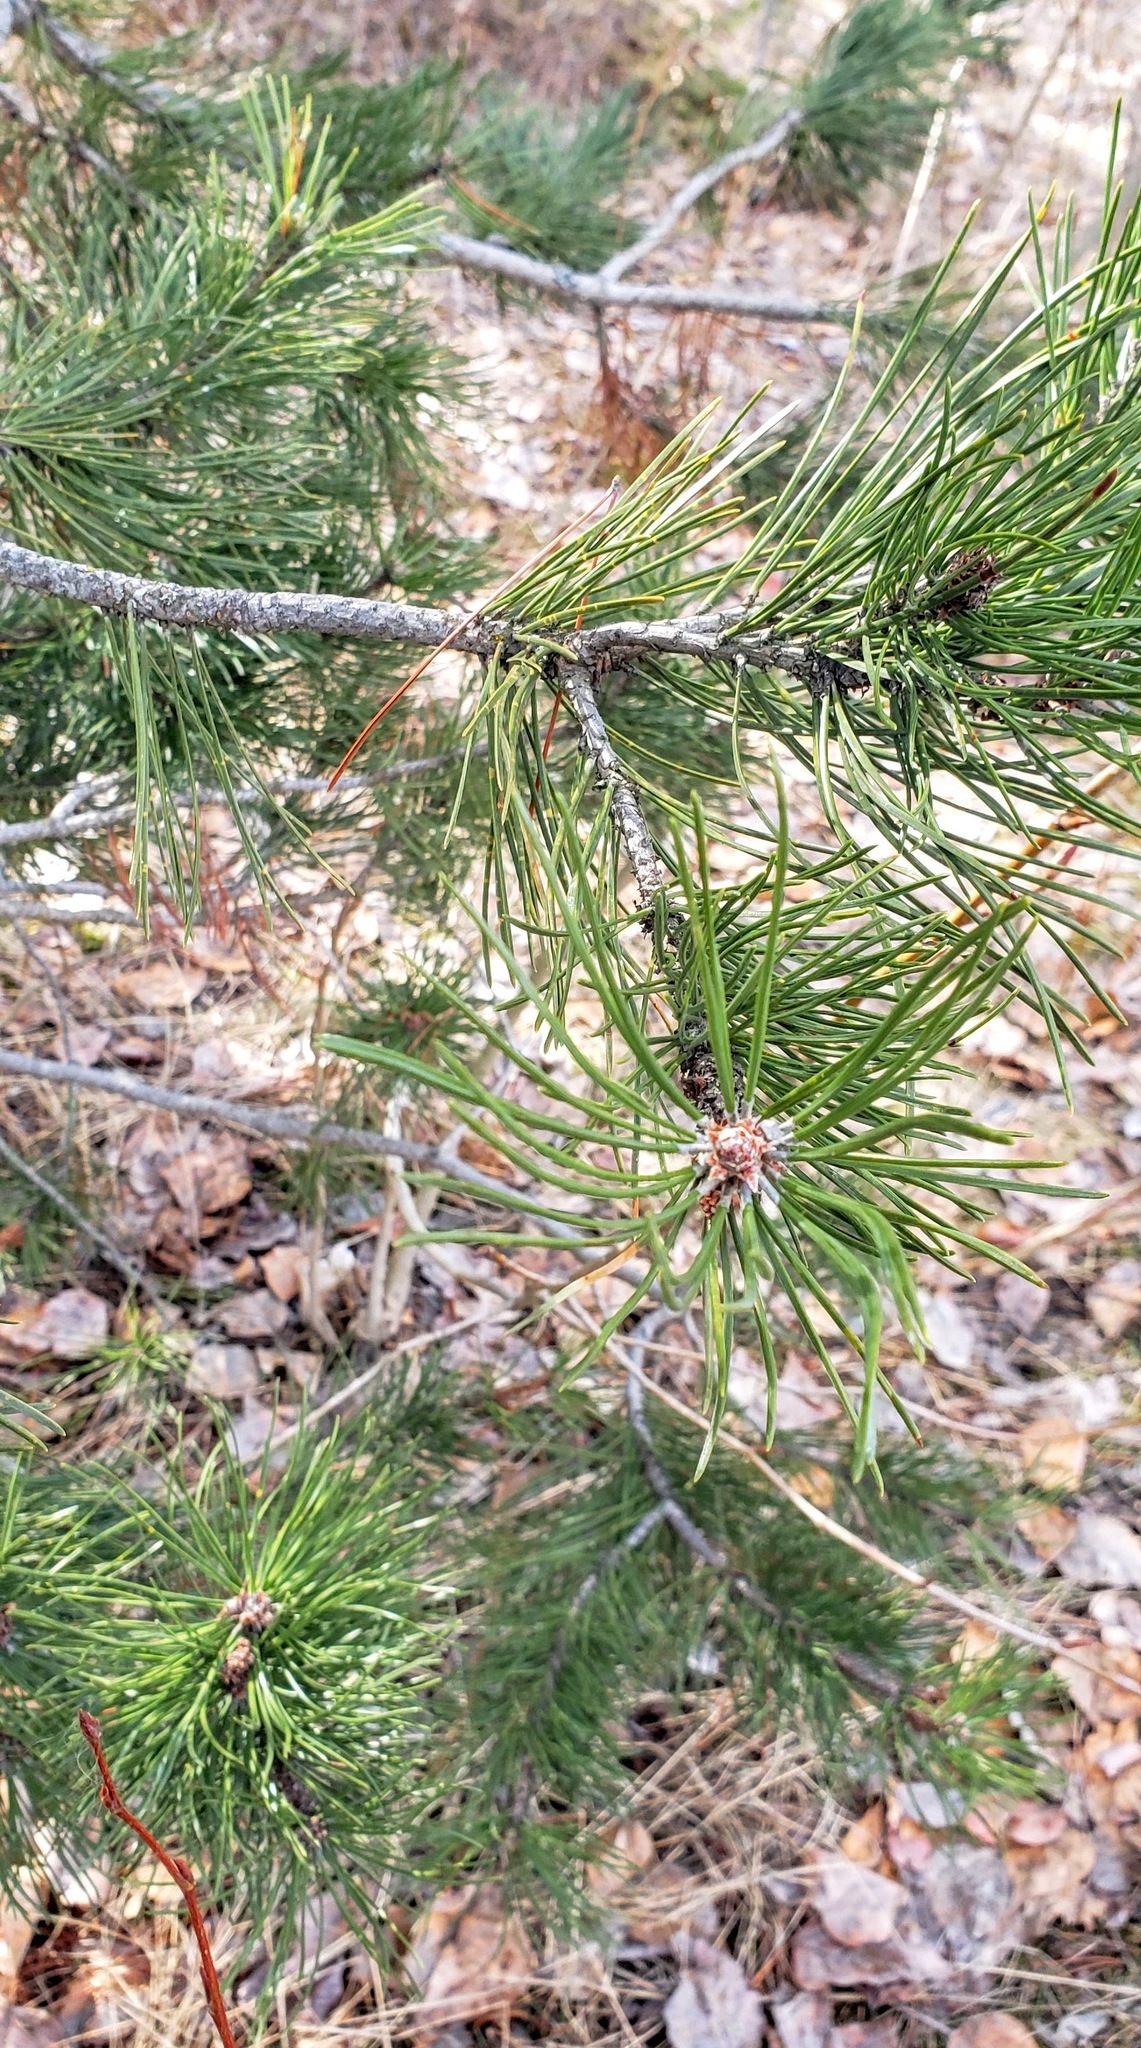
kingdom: Plantae
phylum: Tracheophyta
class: Pinopsida
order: Pinales
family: Pinaceae
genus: Pinus
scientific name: Pinus contorta
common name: Lodgepole pine
